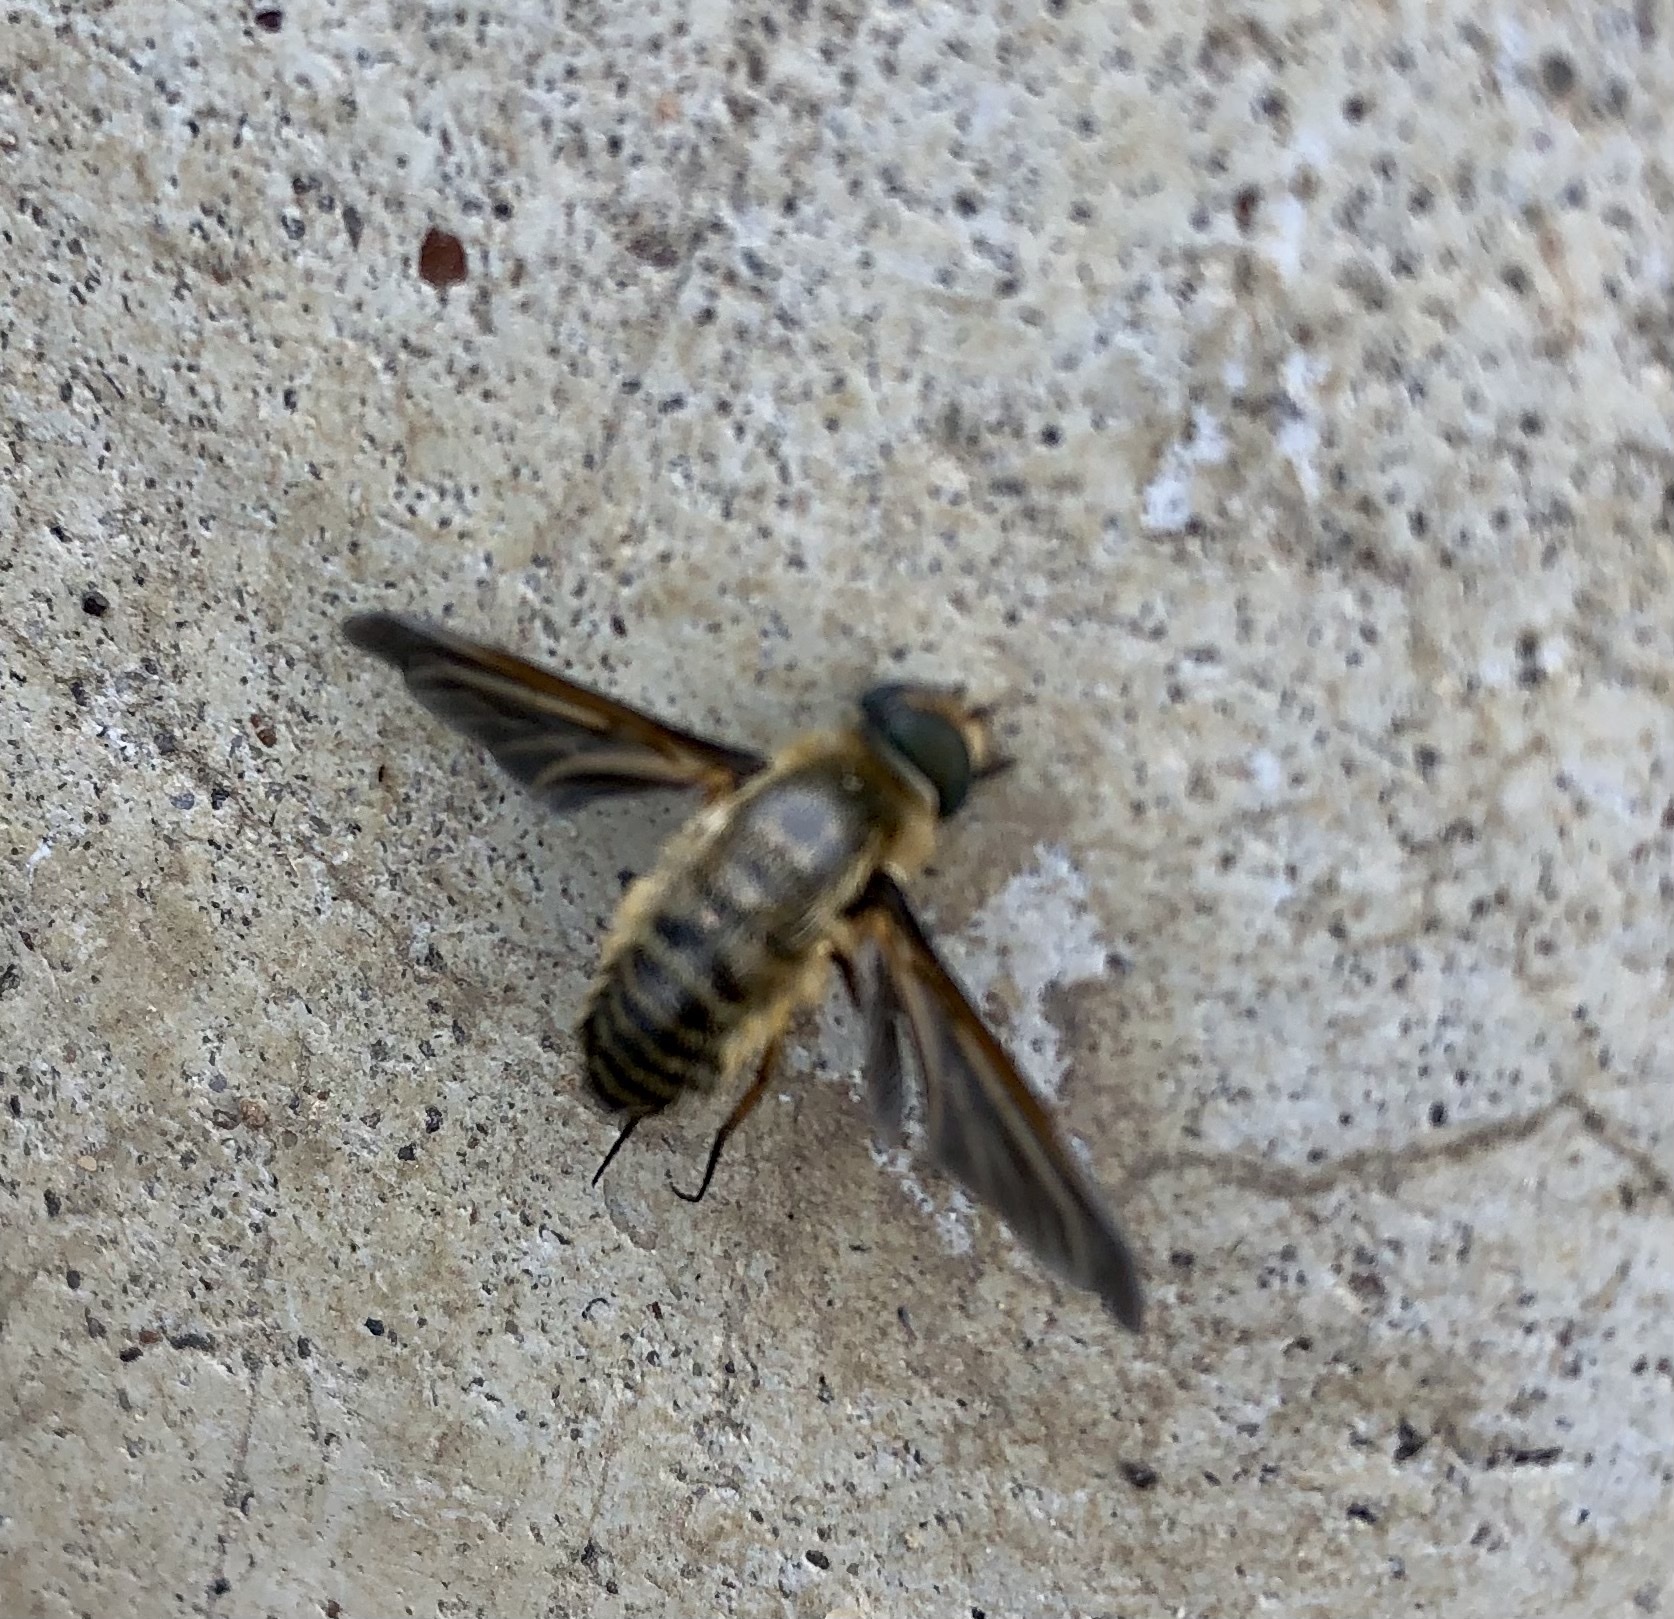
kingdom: Animalia
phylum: Arthropoda
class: Insecta
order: Diptera
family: Bombyliidae
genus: Poecilanthrax
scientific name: Poecilanthrax lucifer
